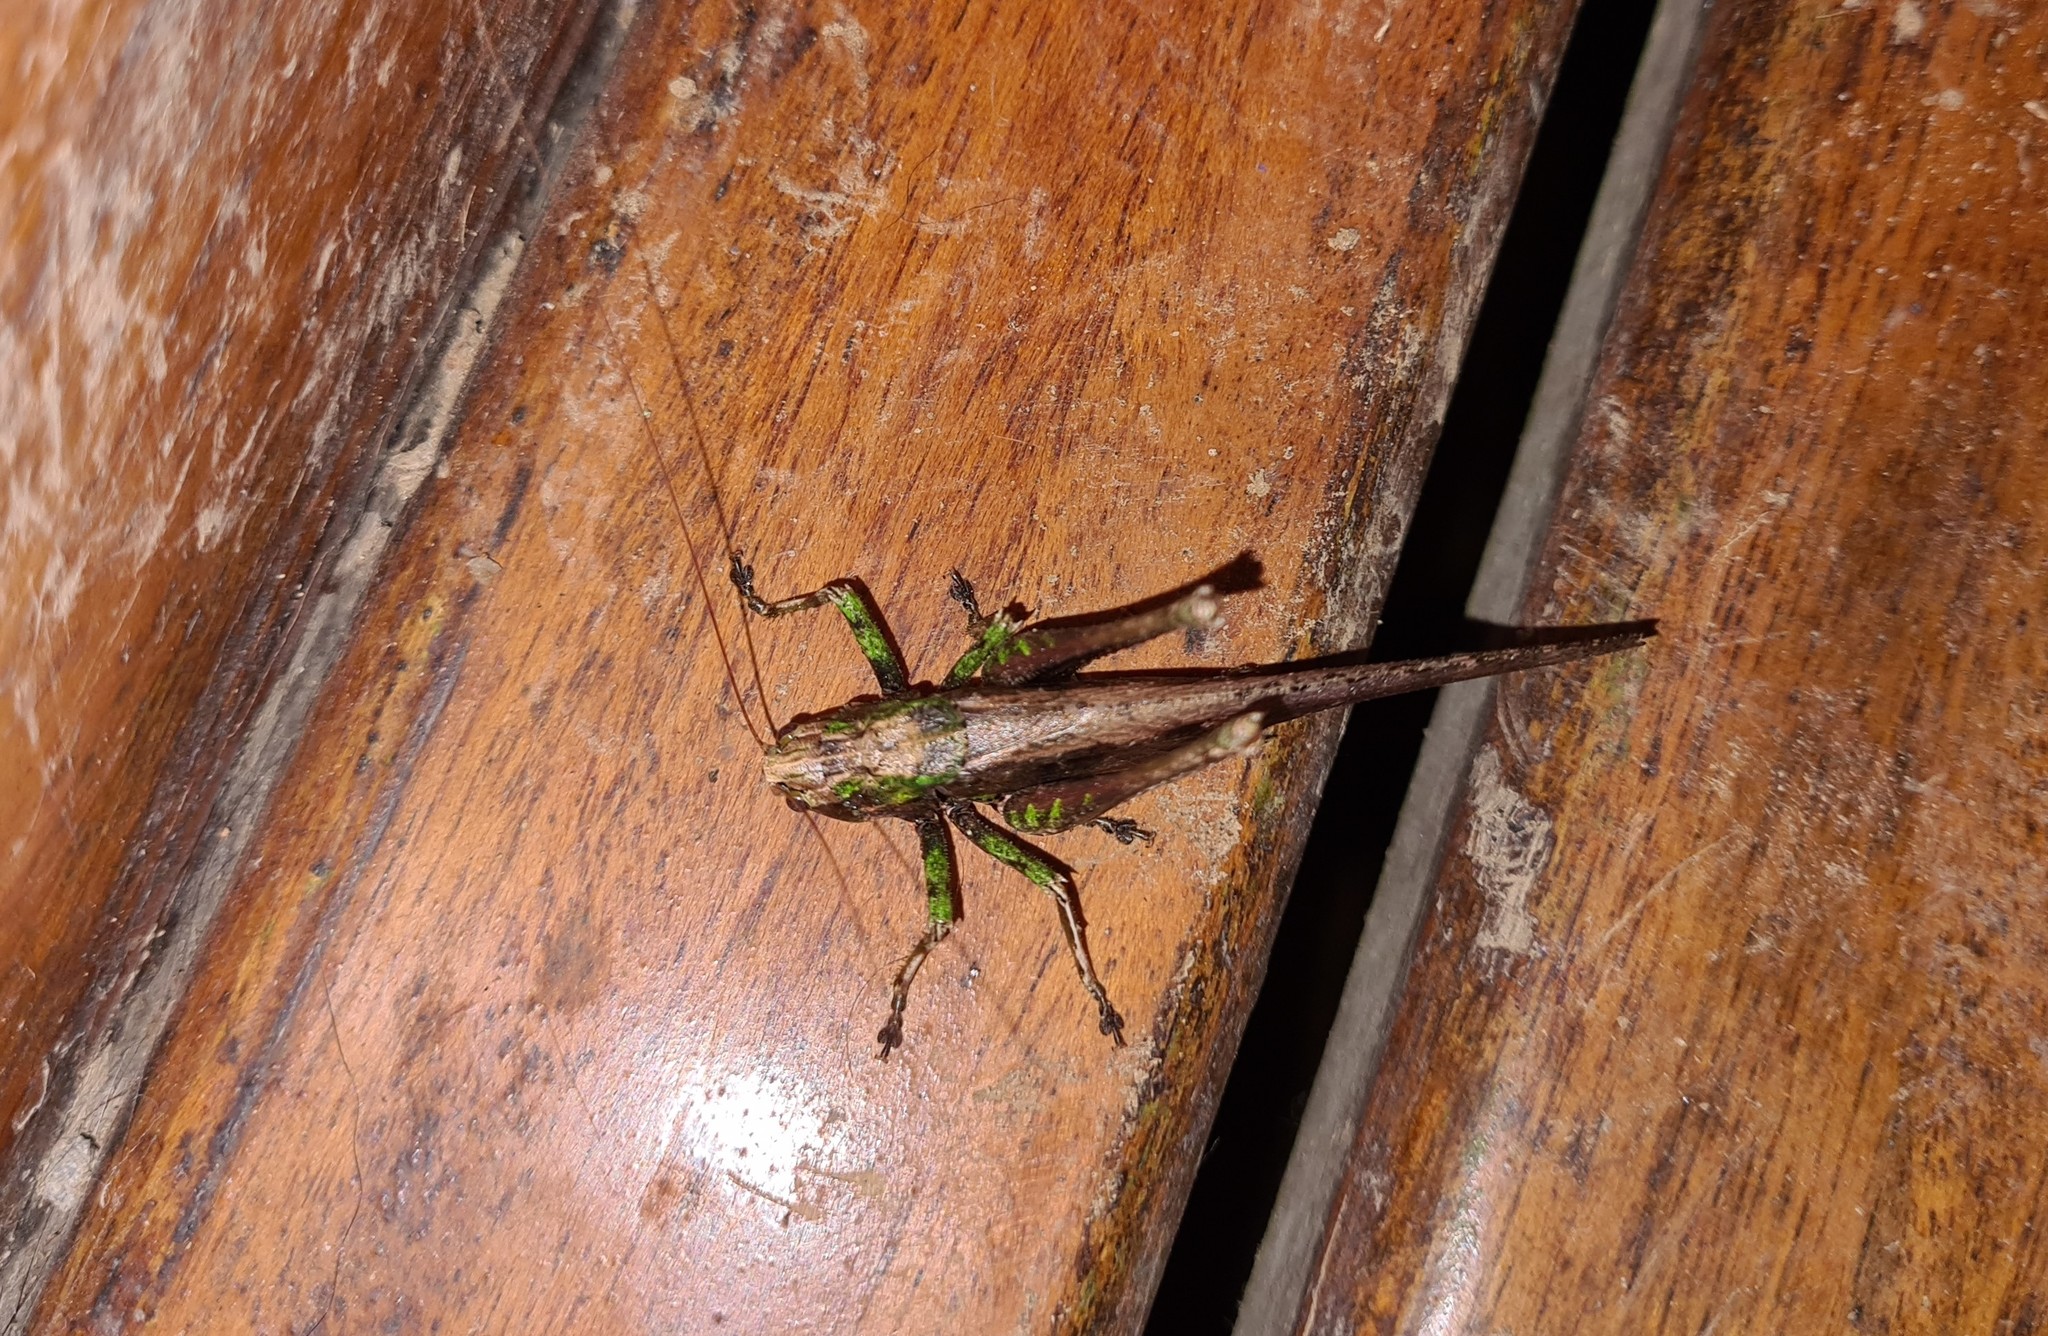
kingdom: Animalia
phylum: Arthropoda
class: Insecta
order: Orthoptera
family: Tettigoniidae
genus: Eppia
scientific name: Eppia truncatipennis
